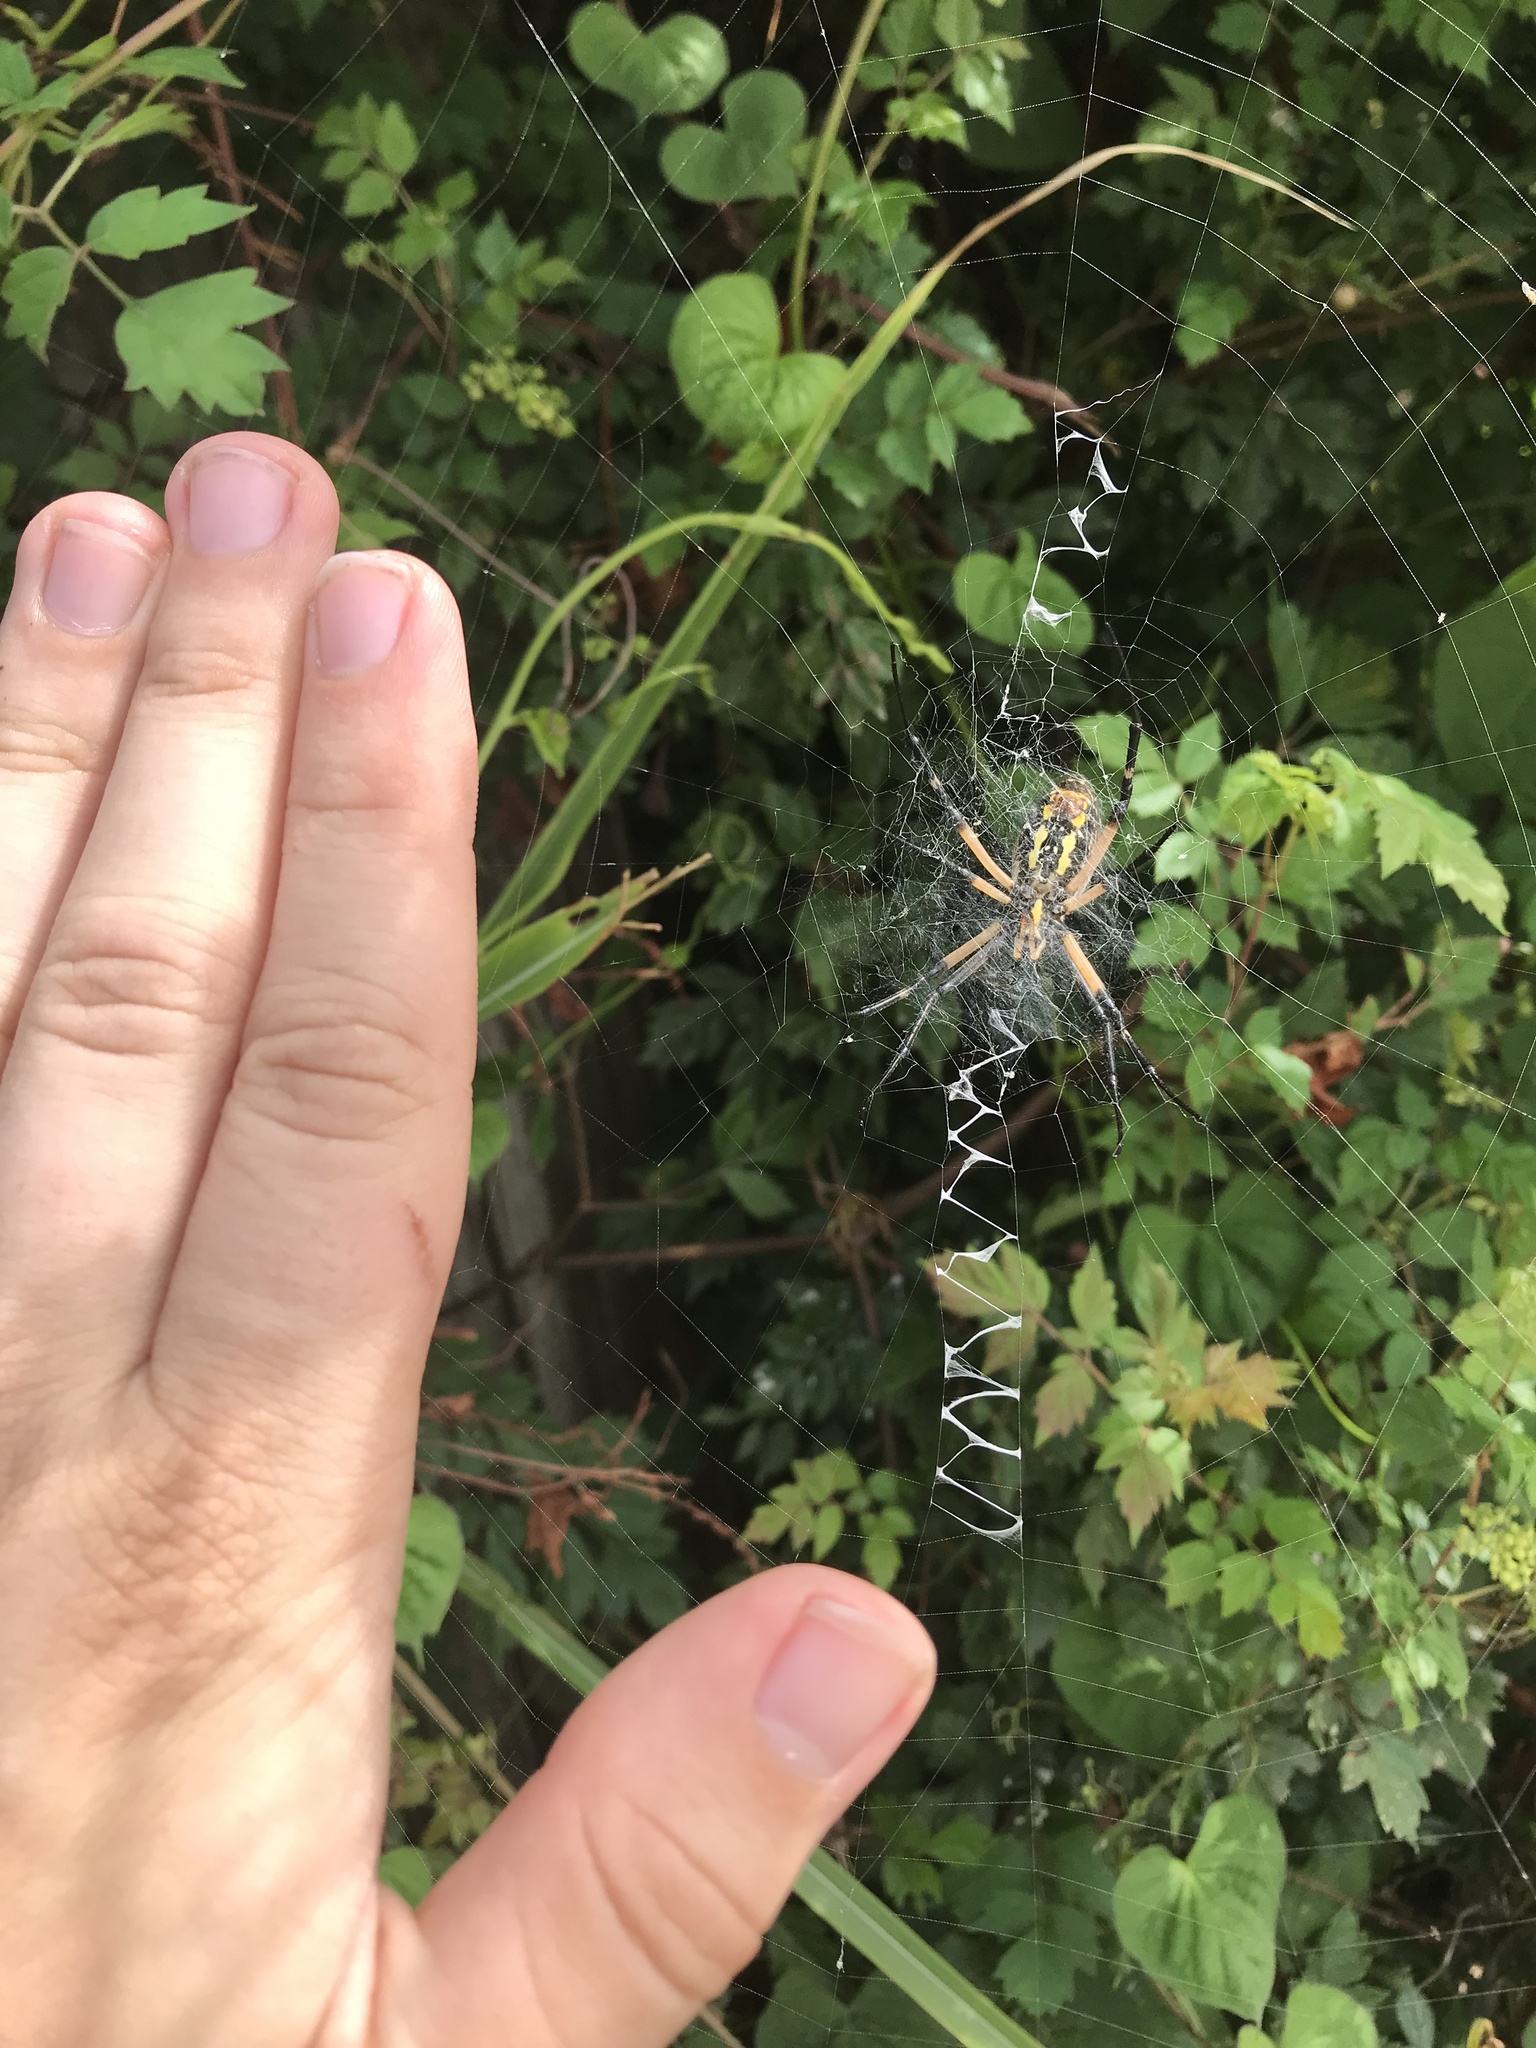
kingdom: Animalia
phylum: Arthropoda
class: Arachnida
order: Araneae
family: Araneidae
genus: Argiope
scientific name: Argiope aurantia
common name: Orb weavers
